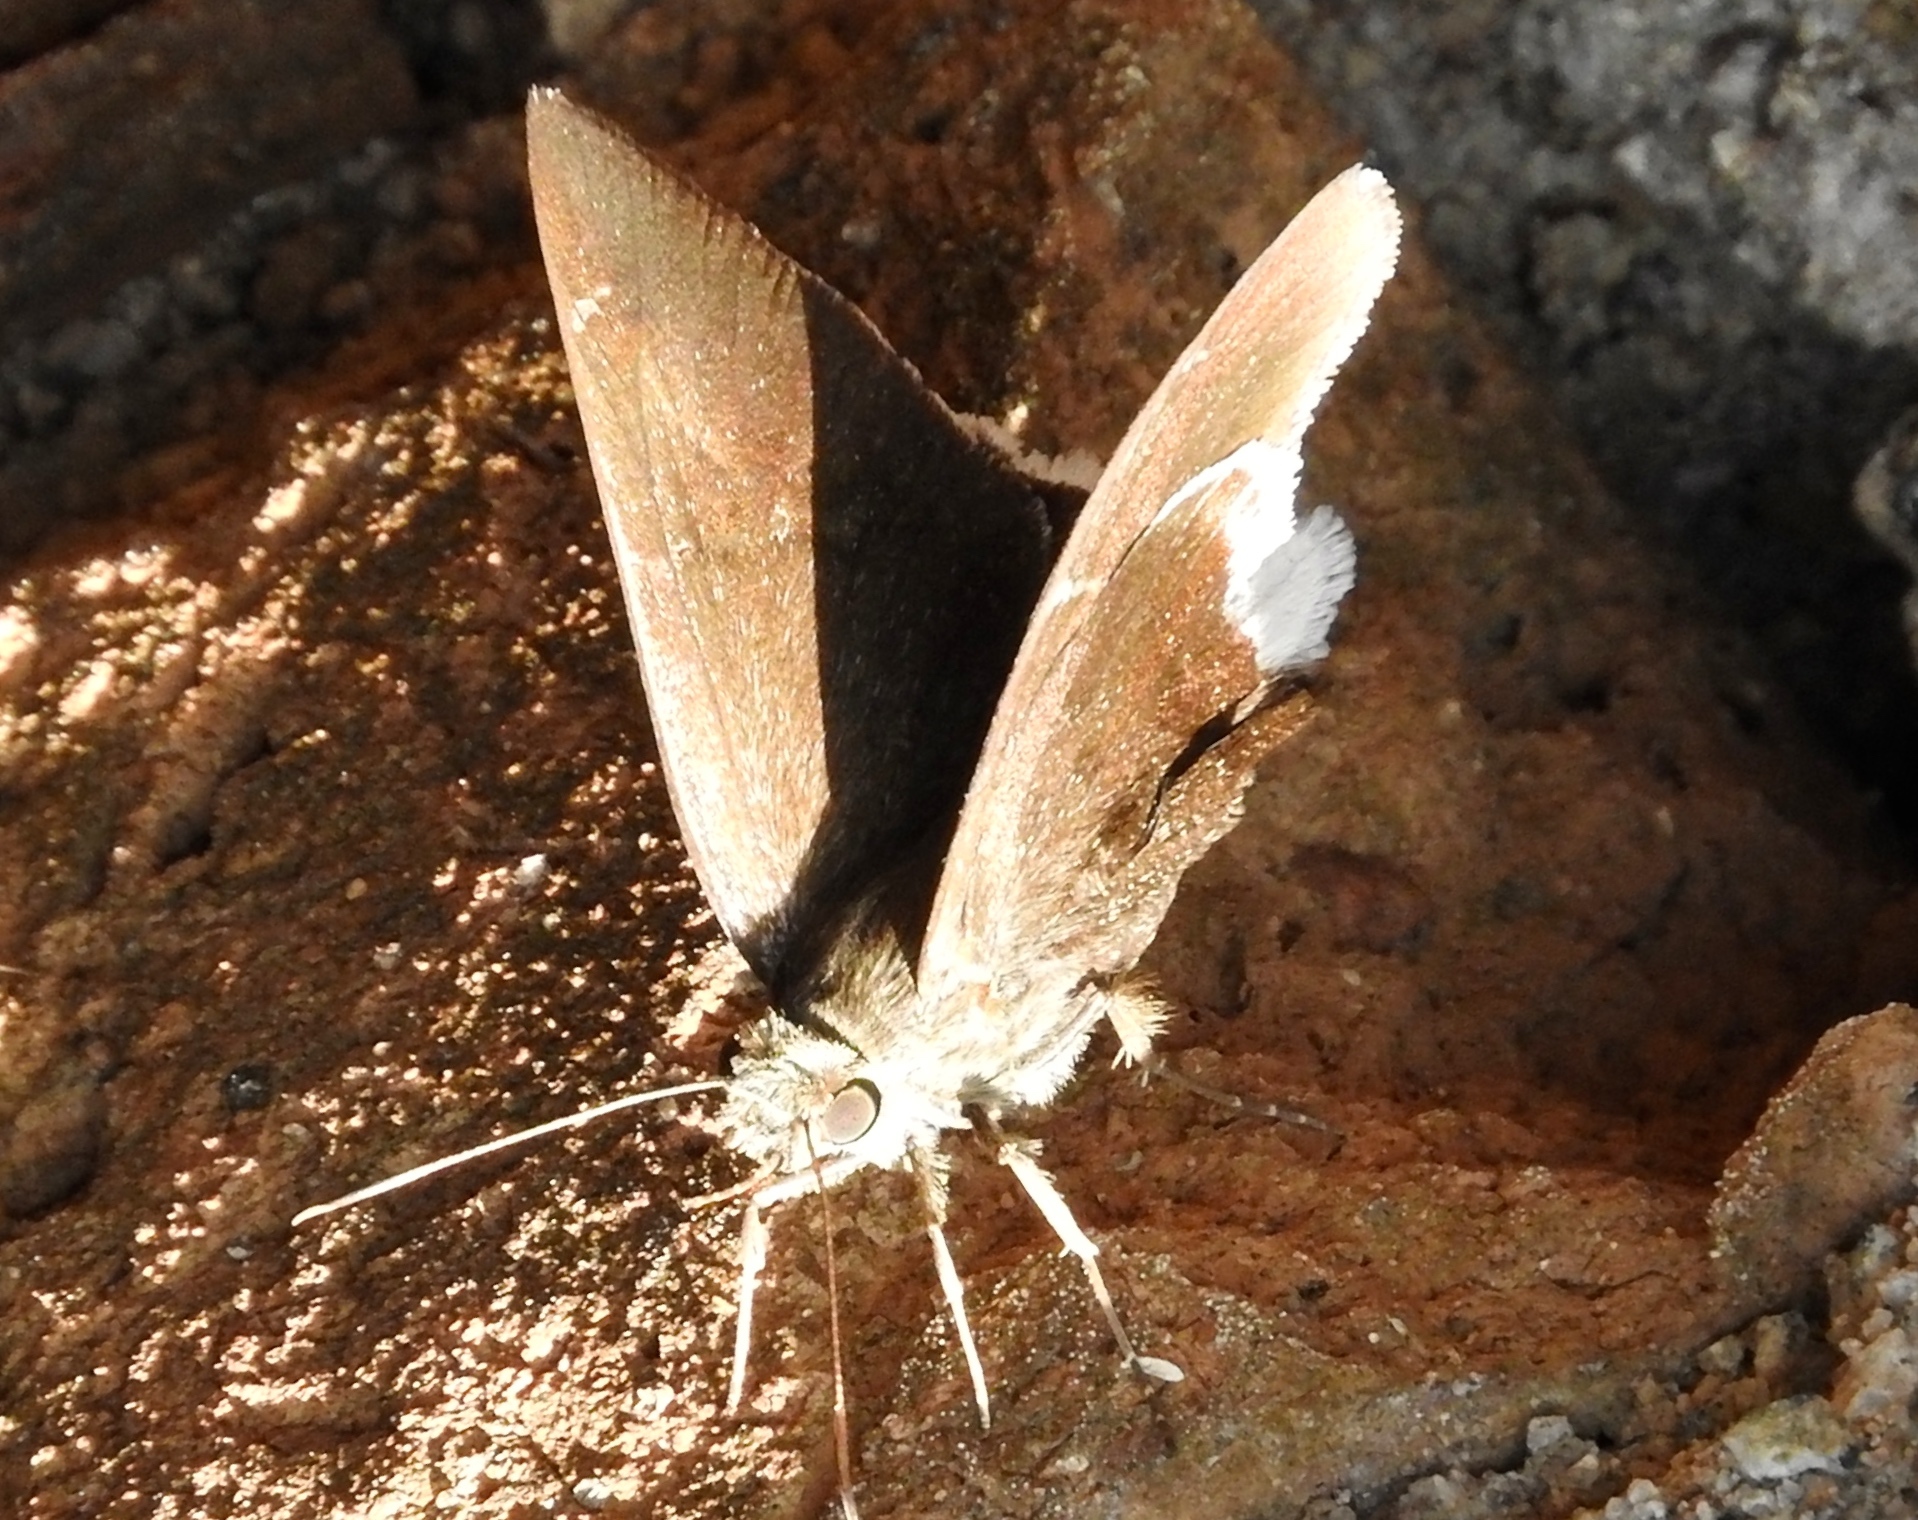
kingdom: Animalia
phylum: Arthropoda
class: Insecta
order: Lepidoptera
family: Hesperiidae
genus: Achalarus
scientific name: Achalarus Murgaria albociliatus
